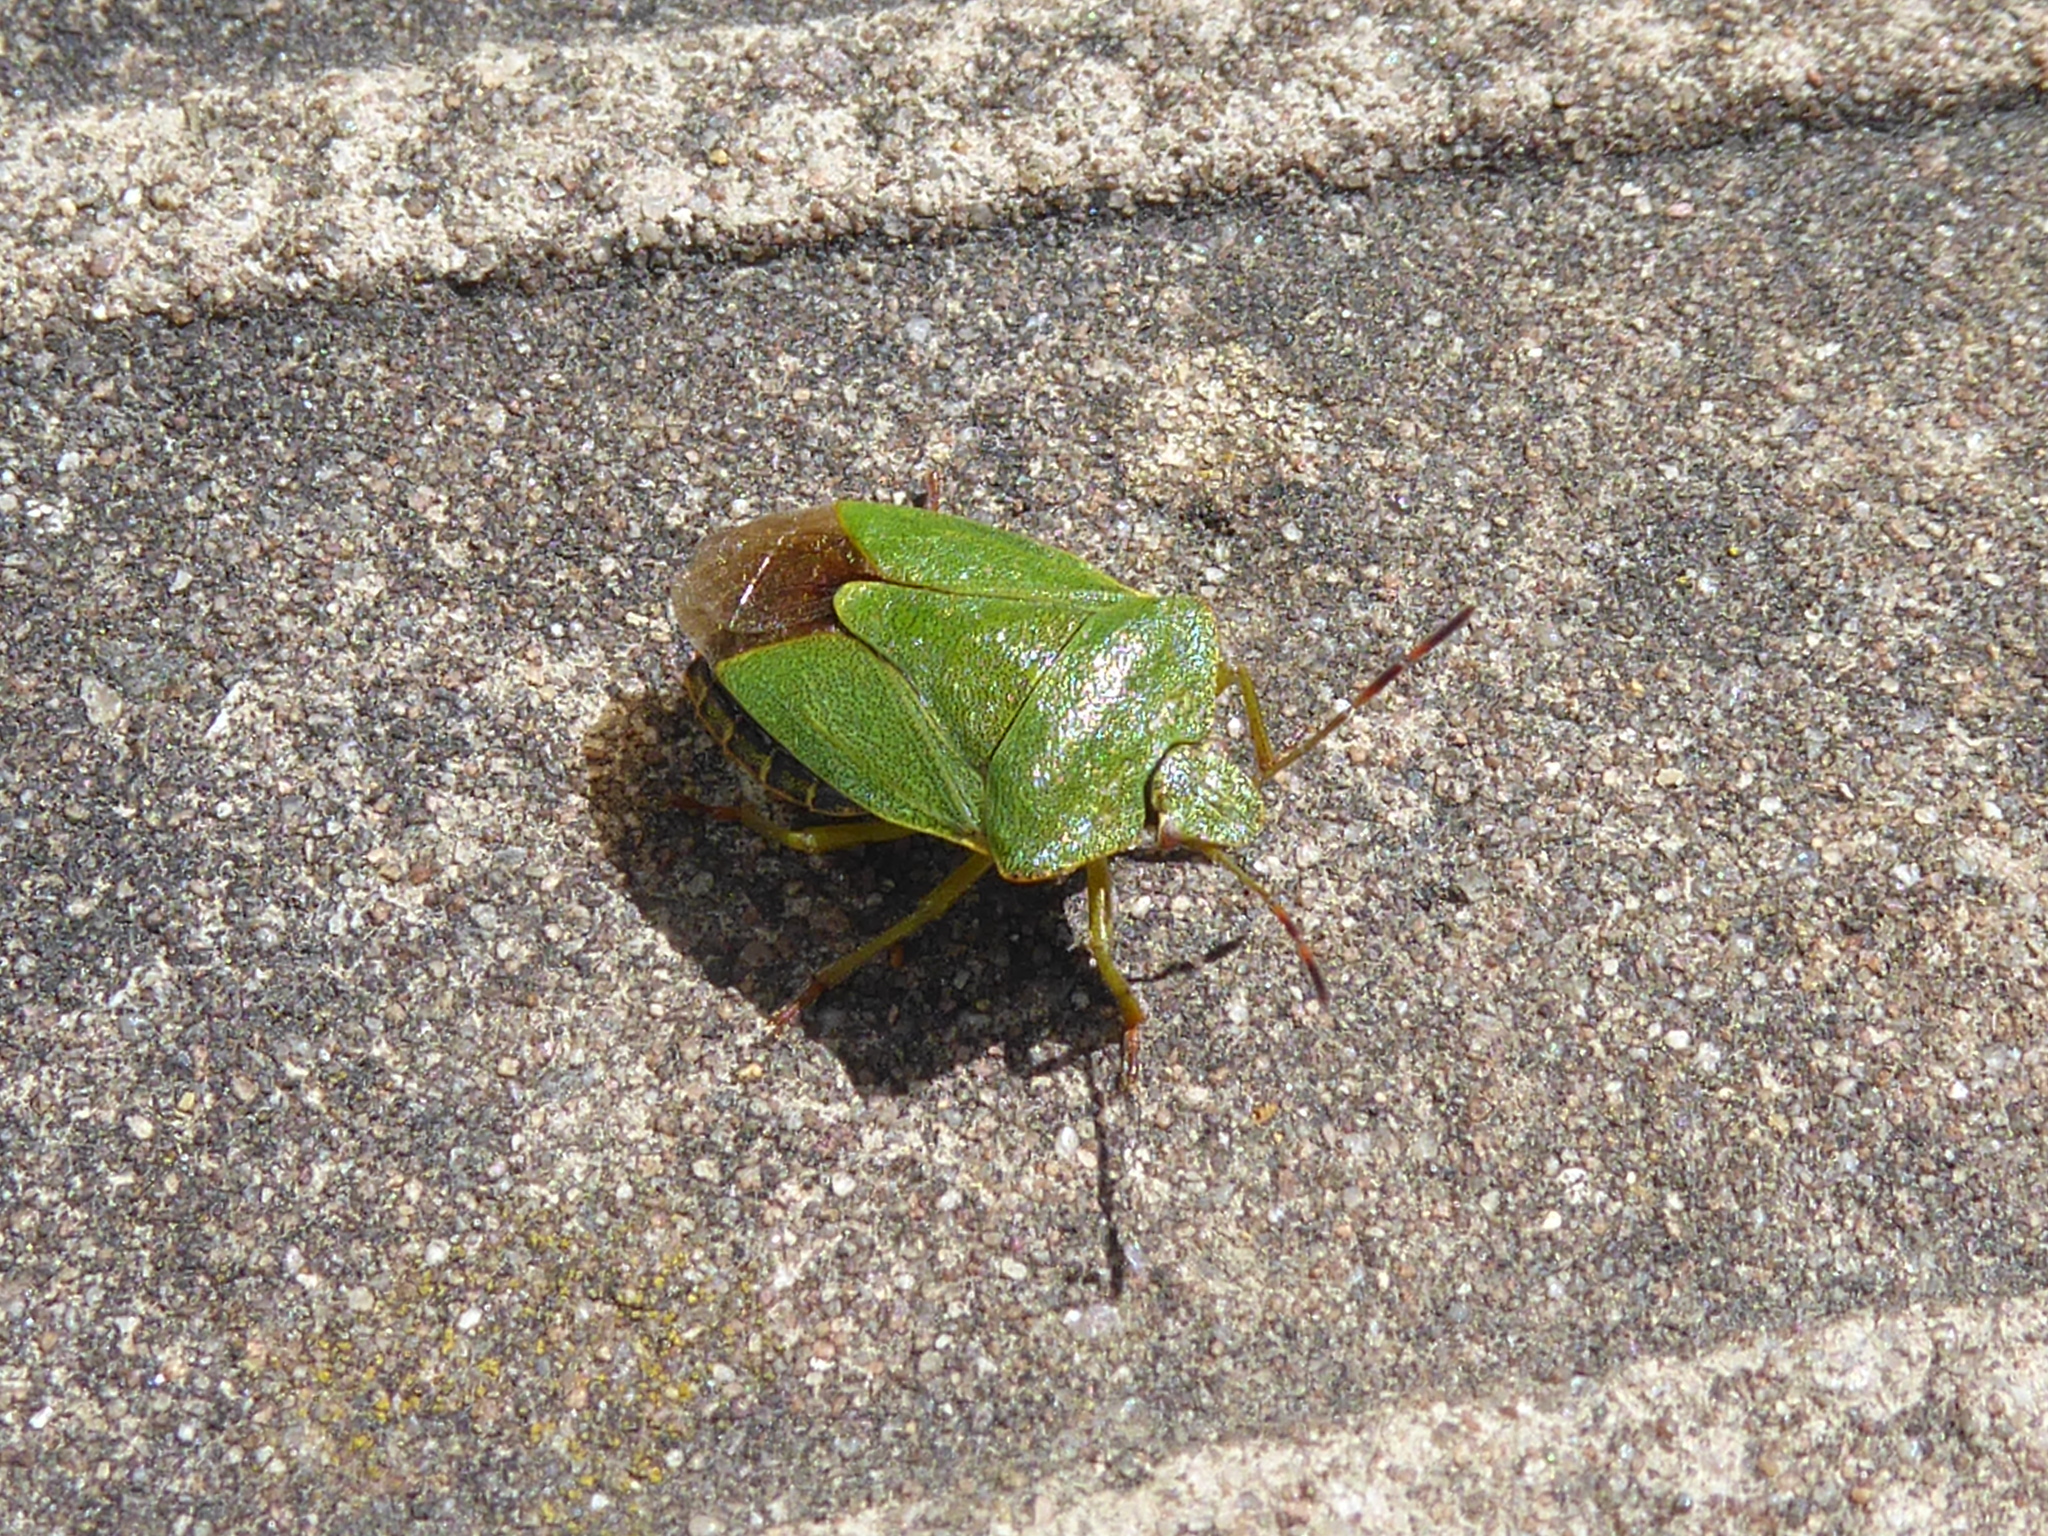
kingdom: Animalia
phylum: Arthropoda
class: Insecta
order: Hemiptera
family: Pentatomidae
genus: Palomena
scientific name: Palomena prasina
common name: Green shieldbug
